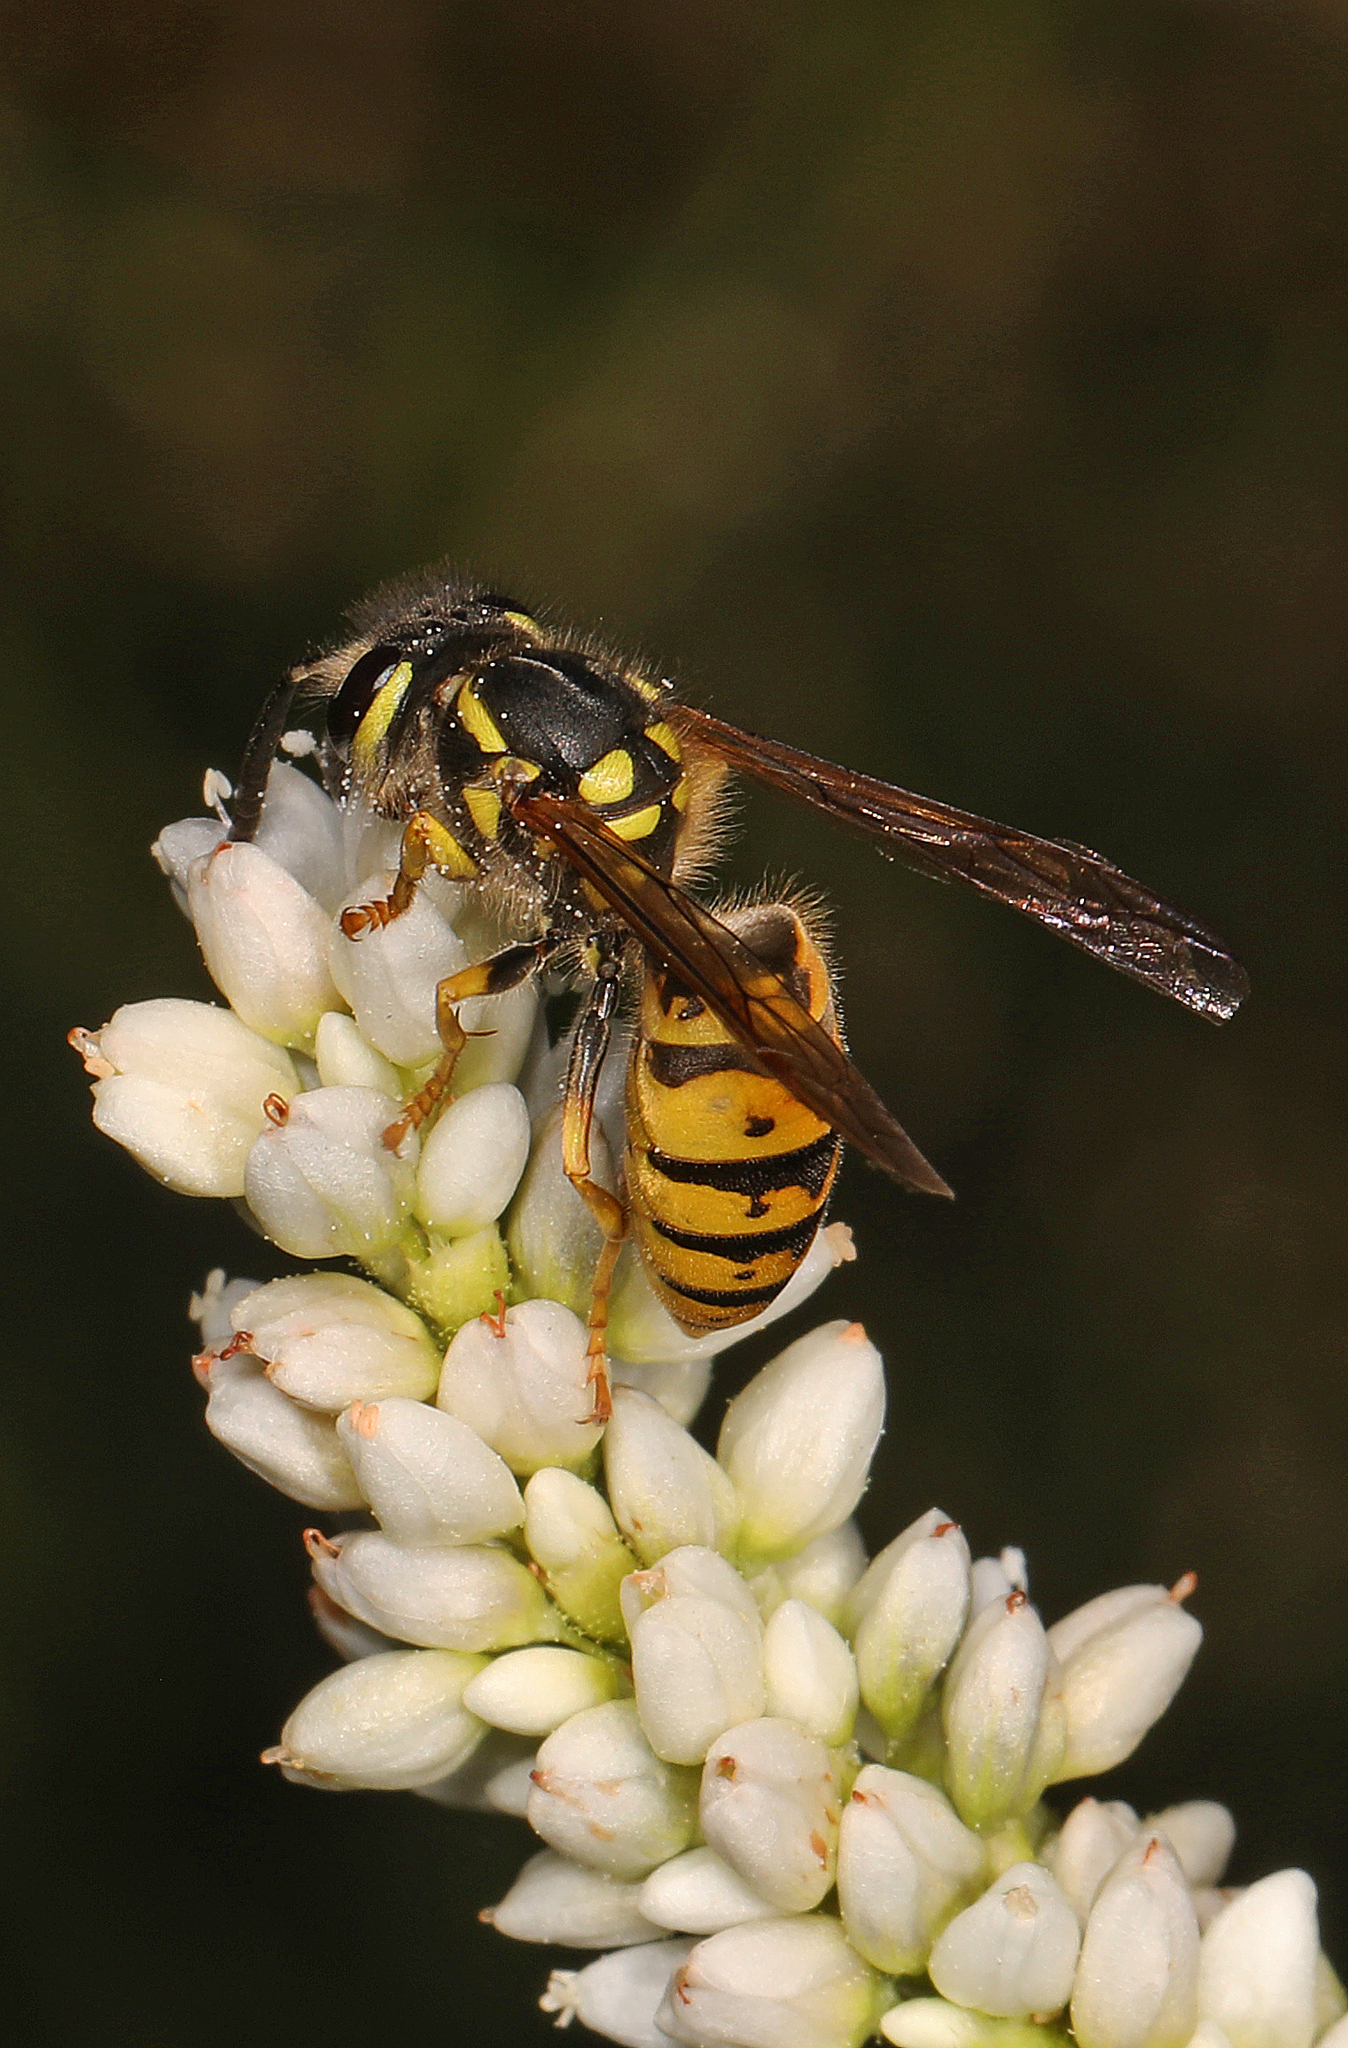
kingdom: Animalia
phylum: Arthropoda
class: Insecta
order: Hymenoptera
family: Vespidae
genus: Vespula
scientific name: Vespula germanica
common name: German wasp
